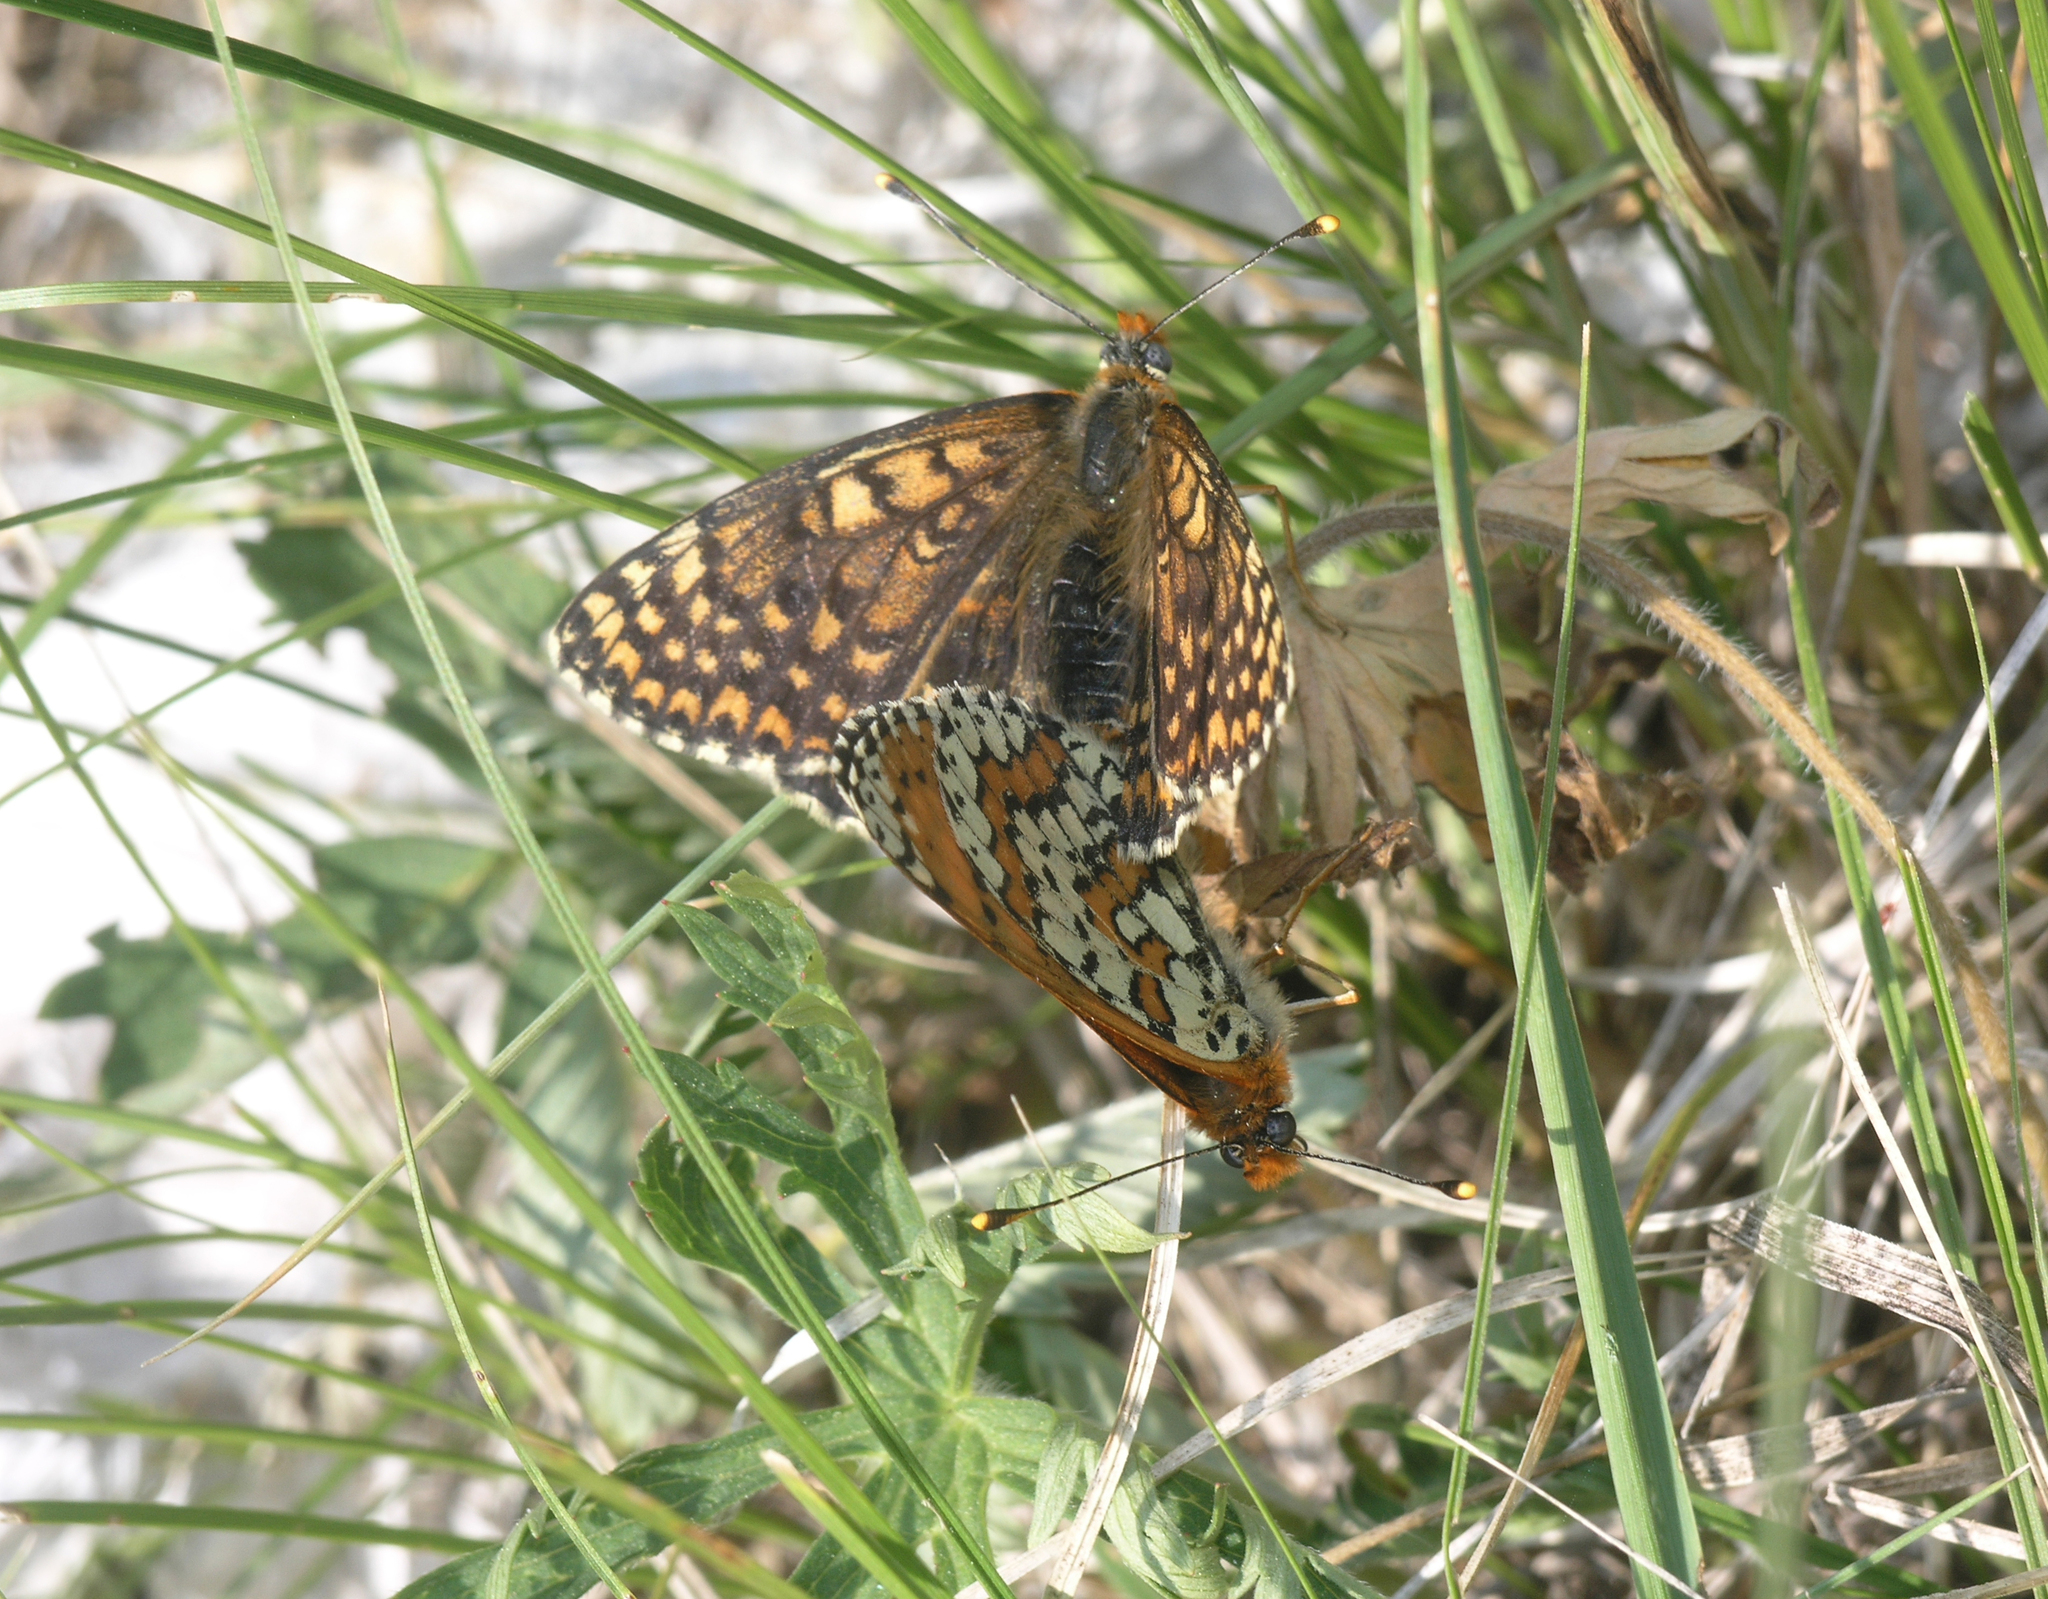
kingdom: Animalia
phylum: Arthropoda
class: Insecta
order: Lepidoptera
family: Nymphalidae
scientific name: Nymphalidae
